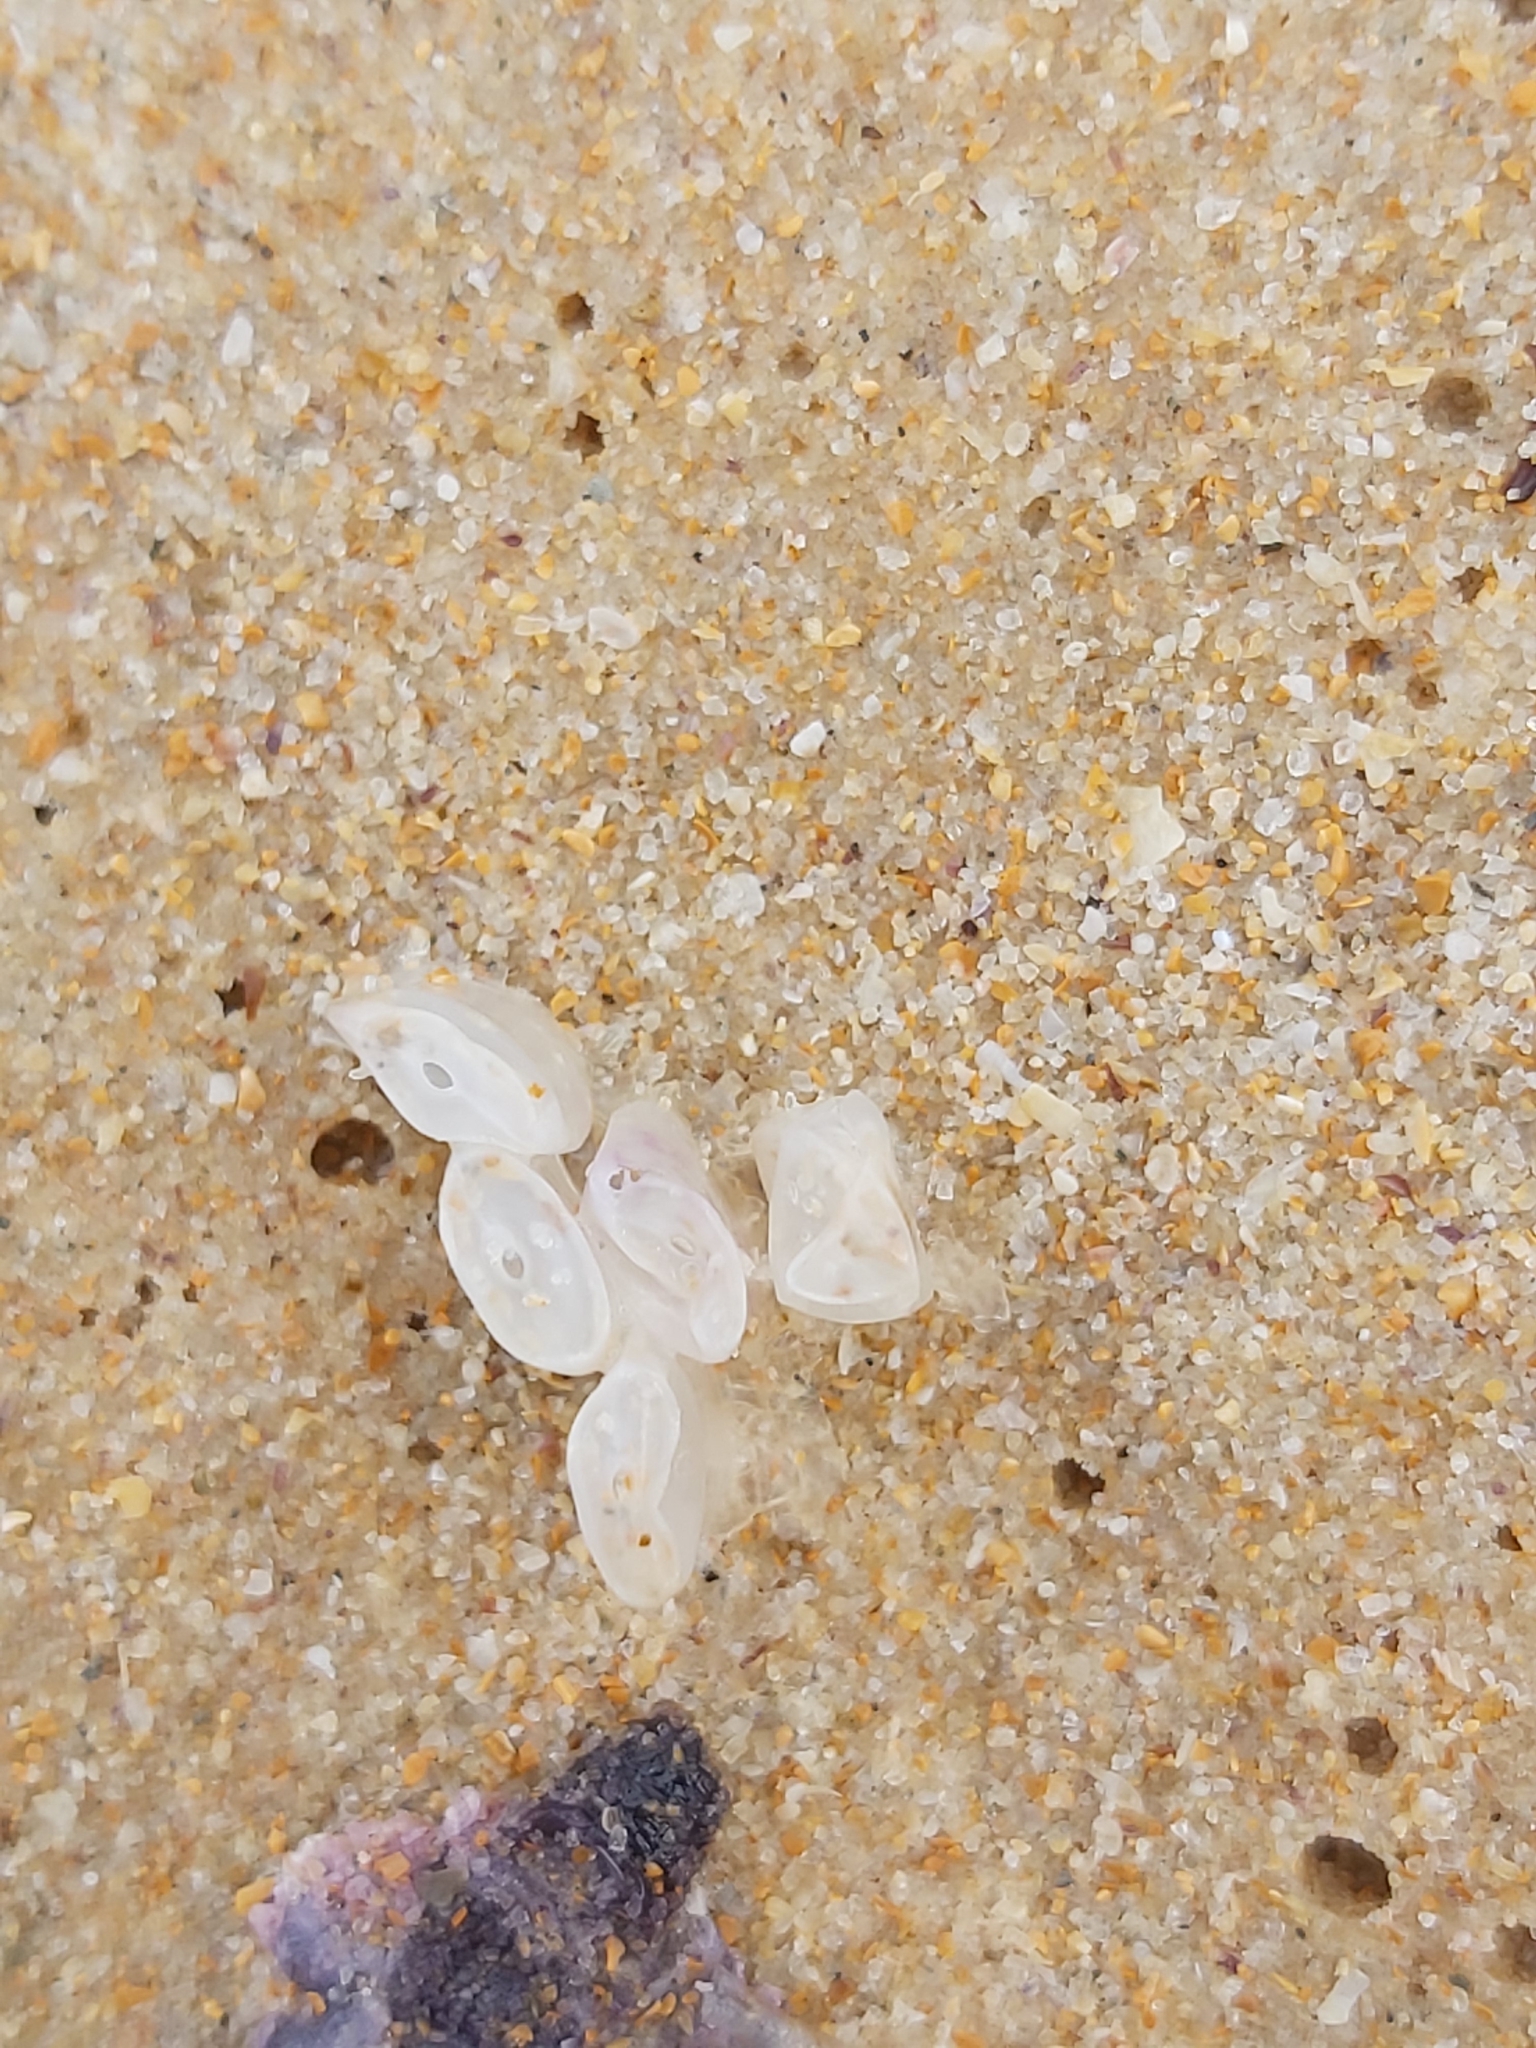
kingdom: Animalia
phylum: Mollusca
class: Gastropoda
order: Neogastropoda
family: Muricidae
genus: Dicathais
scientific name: Dicathais orbita
